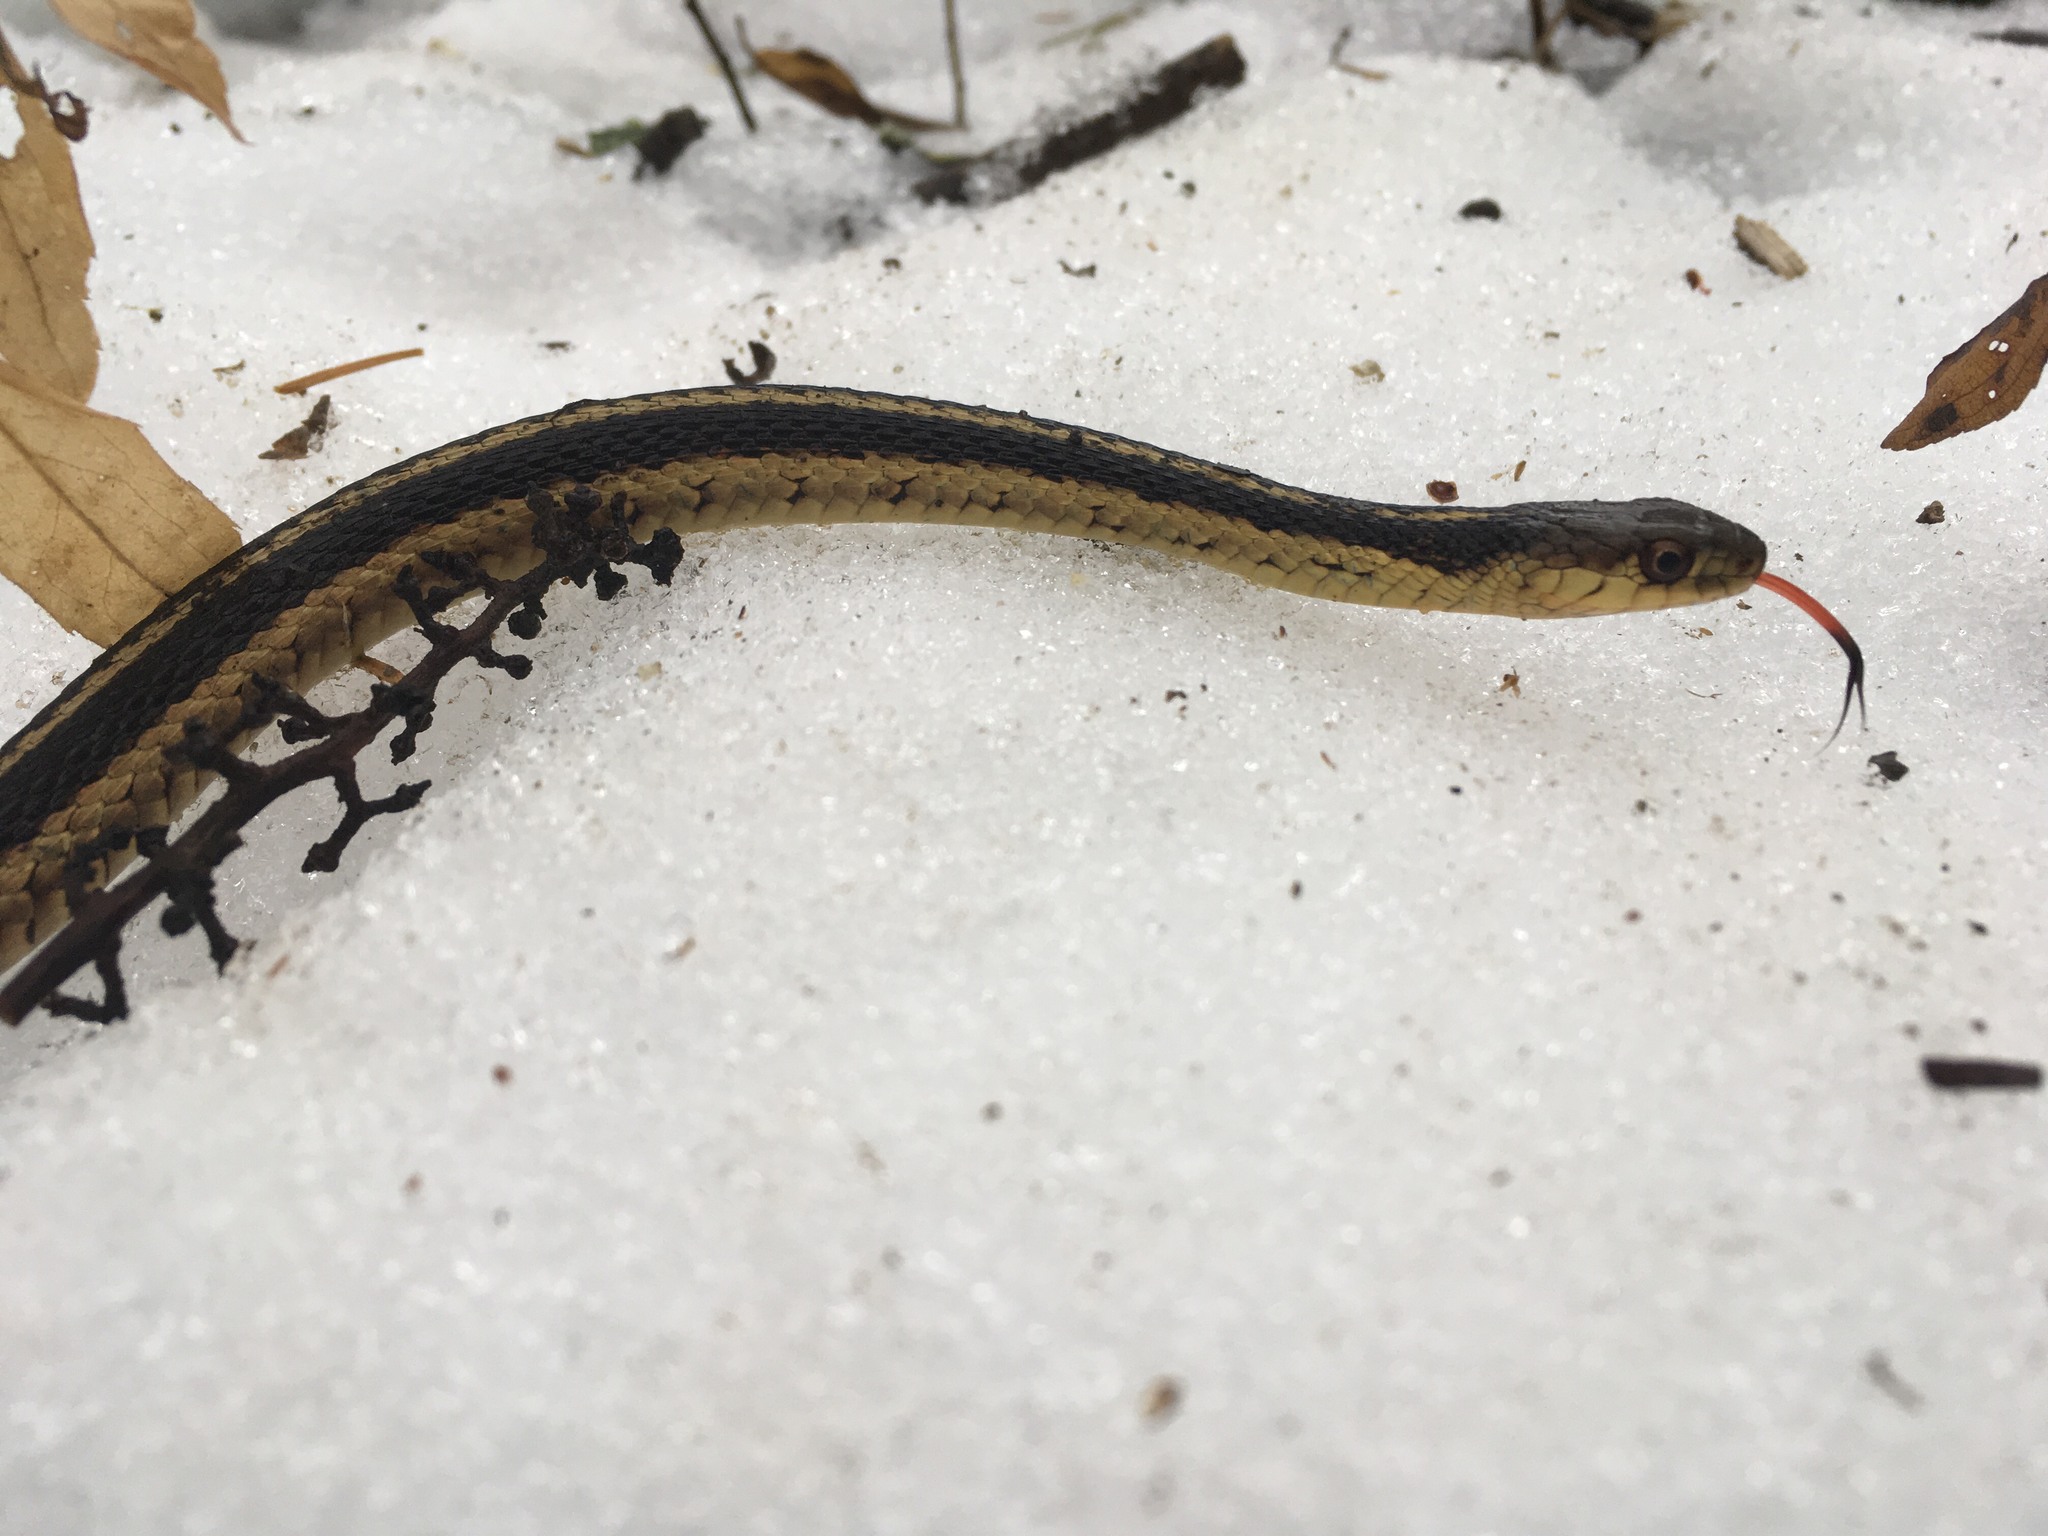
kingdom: Animalia
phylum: Chordata
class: Squamata
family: Colubridae
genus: Thamnophis
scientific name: Thamnophis sirtalis
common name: Common garter snake
